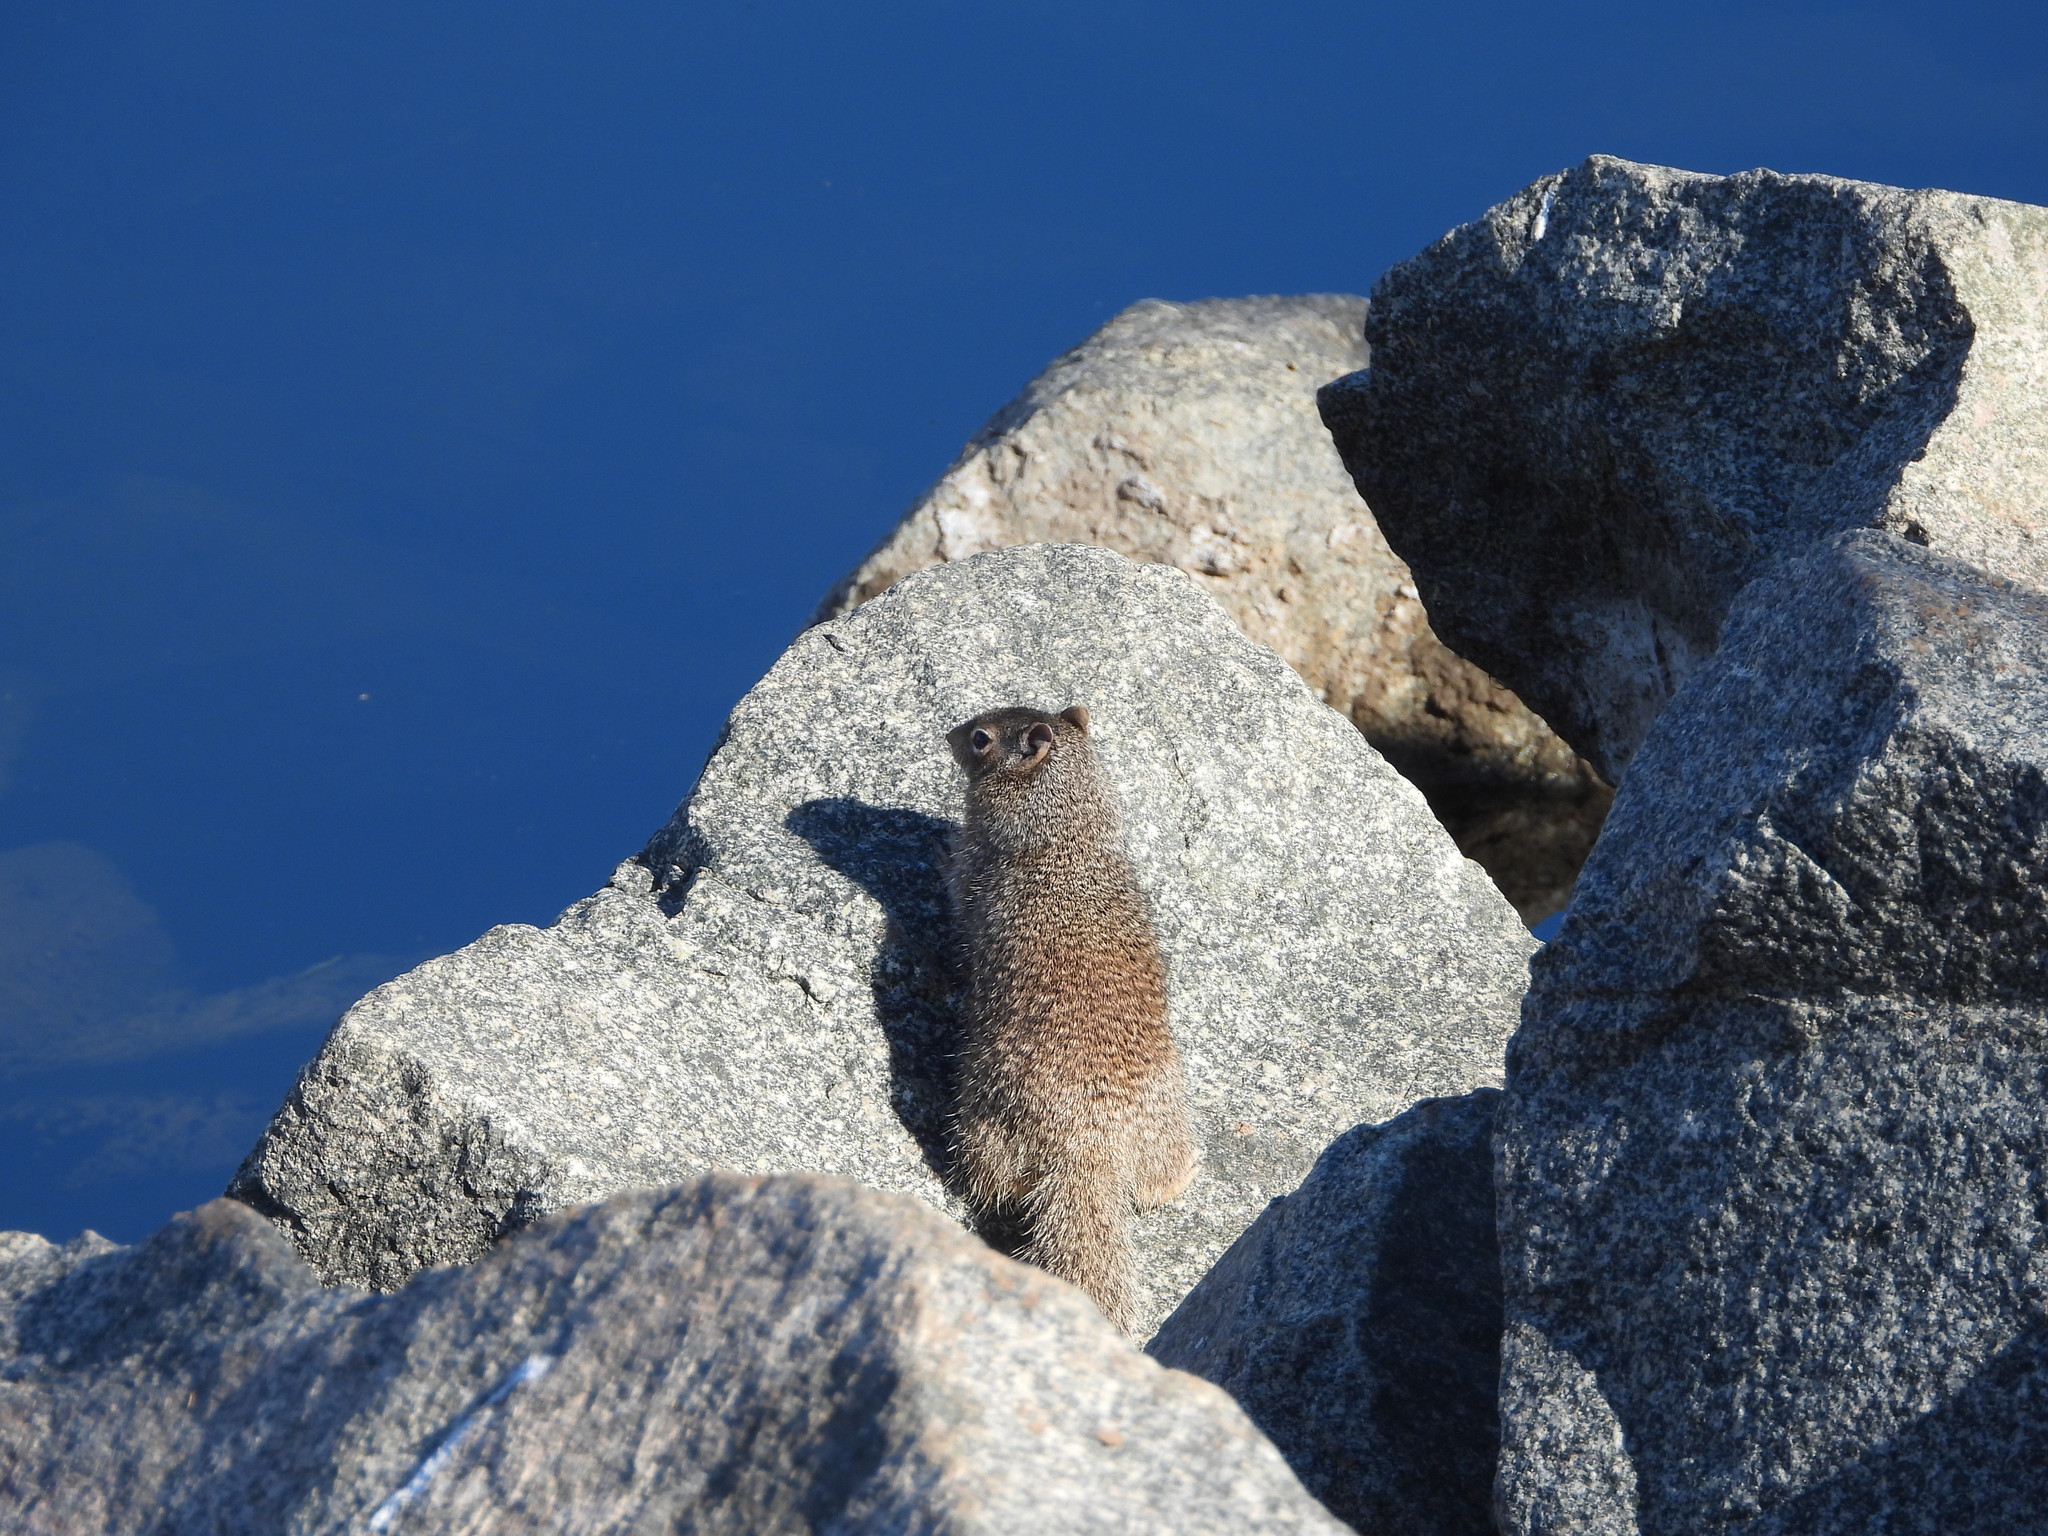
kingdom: Animalia
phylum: Chordata
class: Mammalia
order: Rodentia
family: Sciuridae
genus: Otospermophilus
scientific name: Otospermophilus variegatus
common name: Rock squirrel
